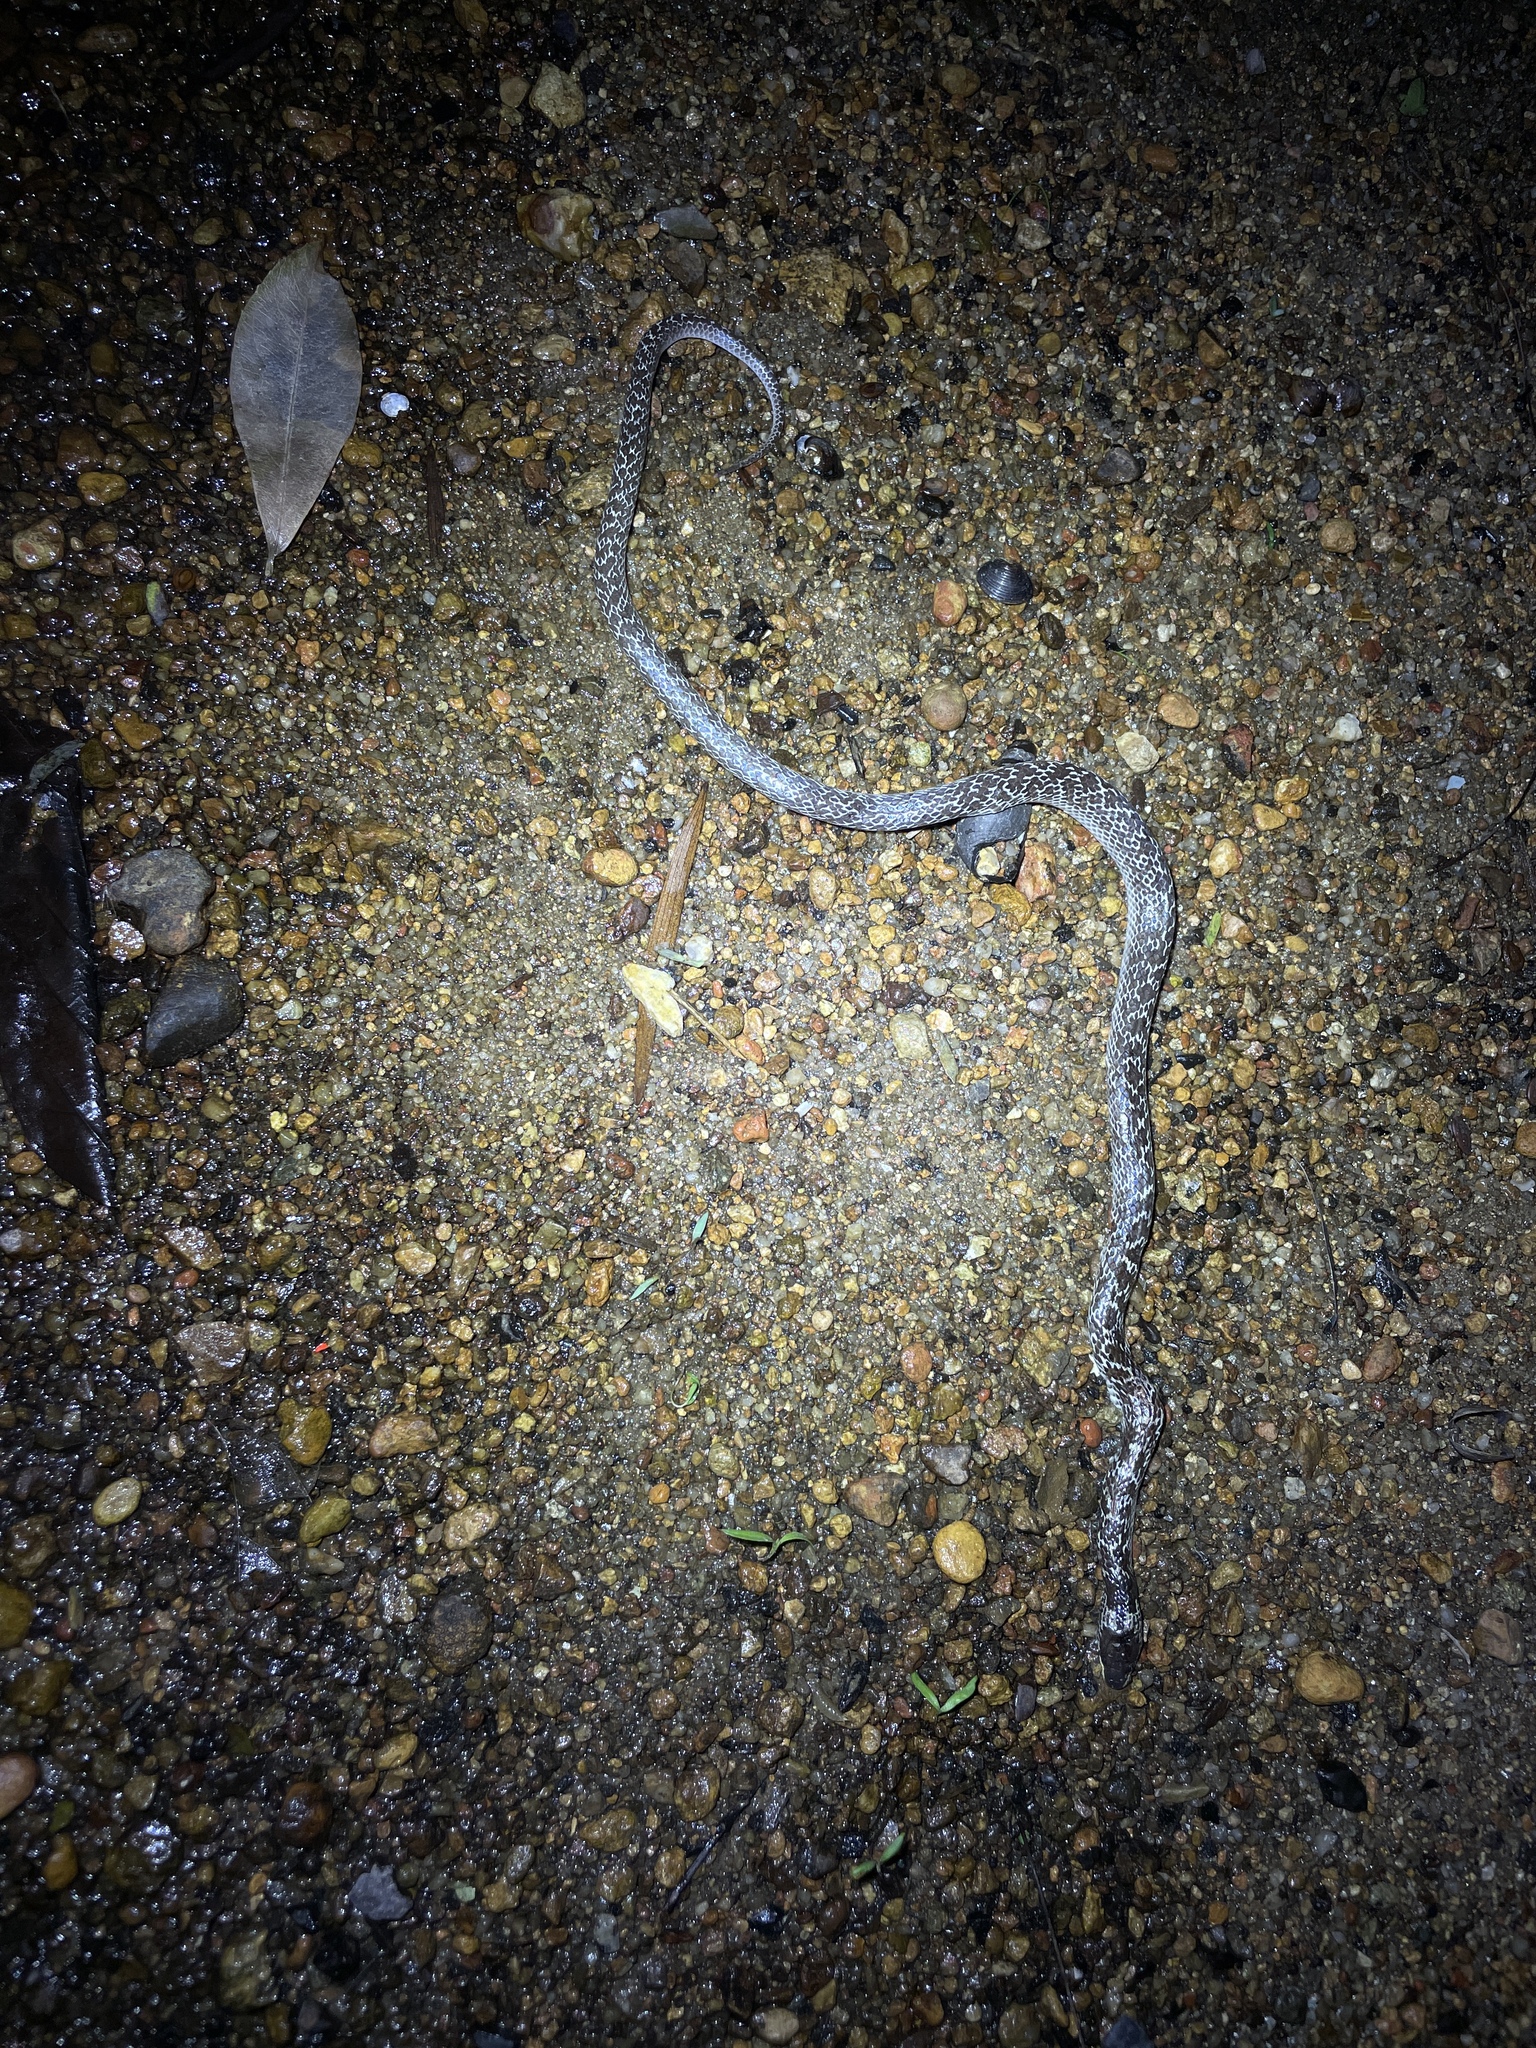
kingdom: Animalia
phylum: Chordata
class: Squamata
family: Colubridae
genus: Lycodon
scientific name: Lycodon capucinus
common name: Common wold snake/house snake
